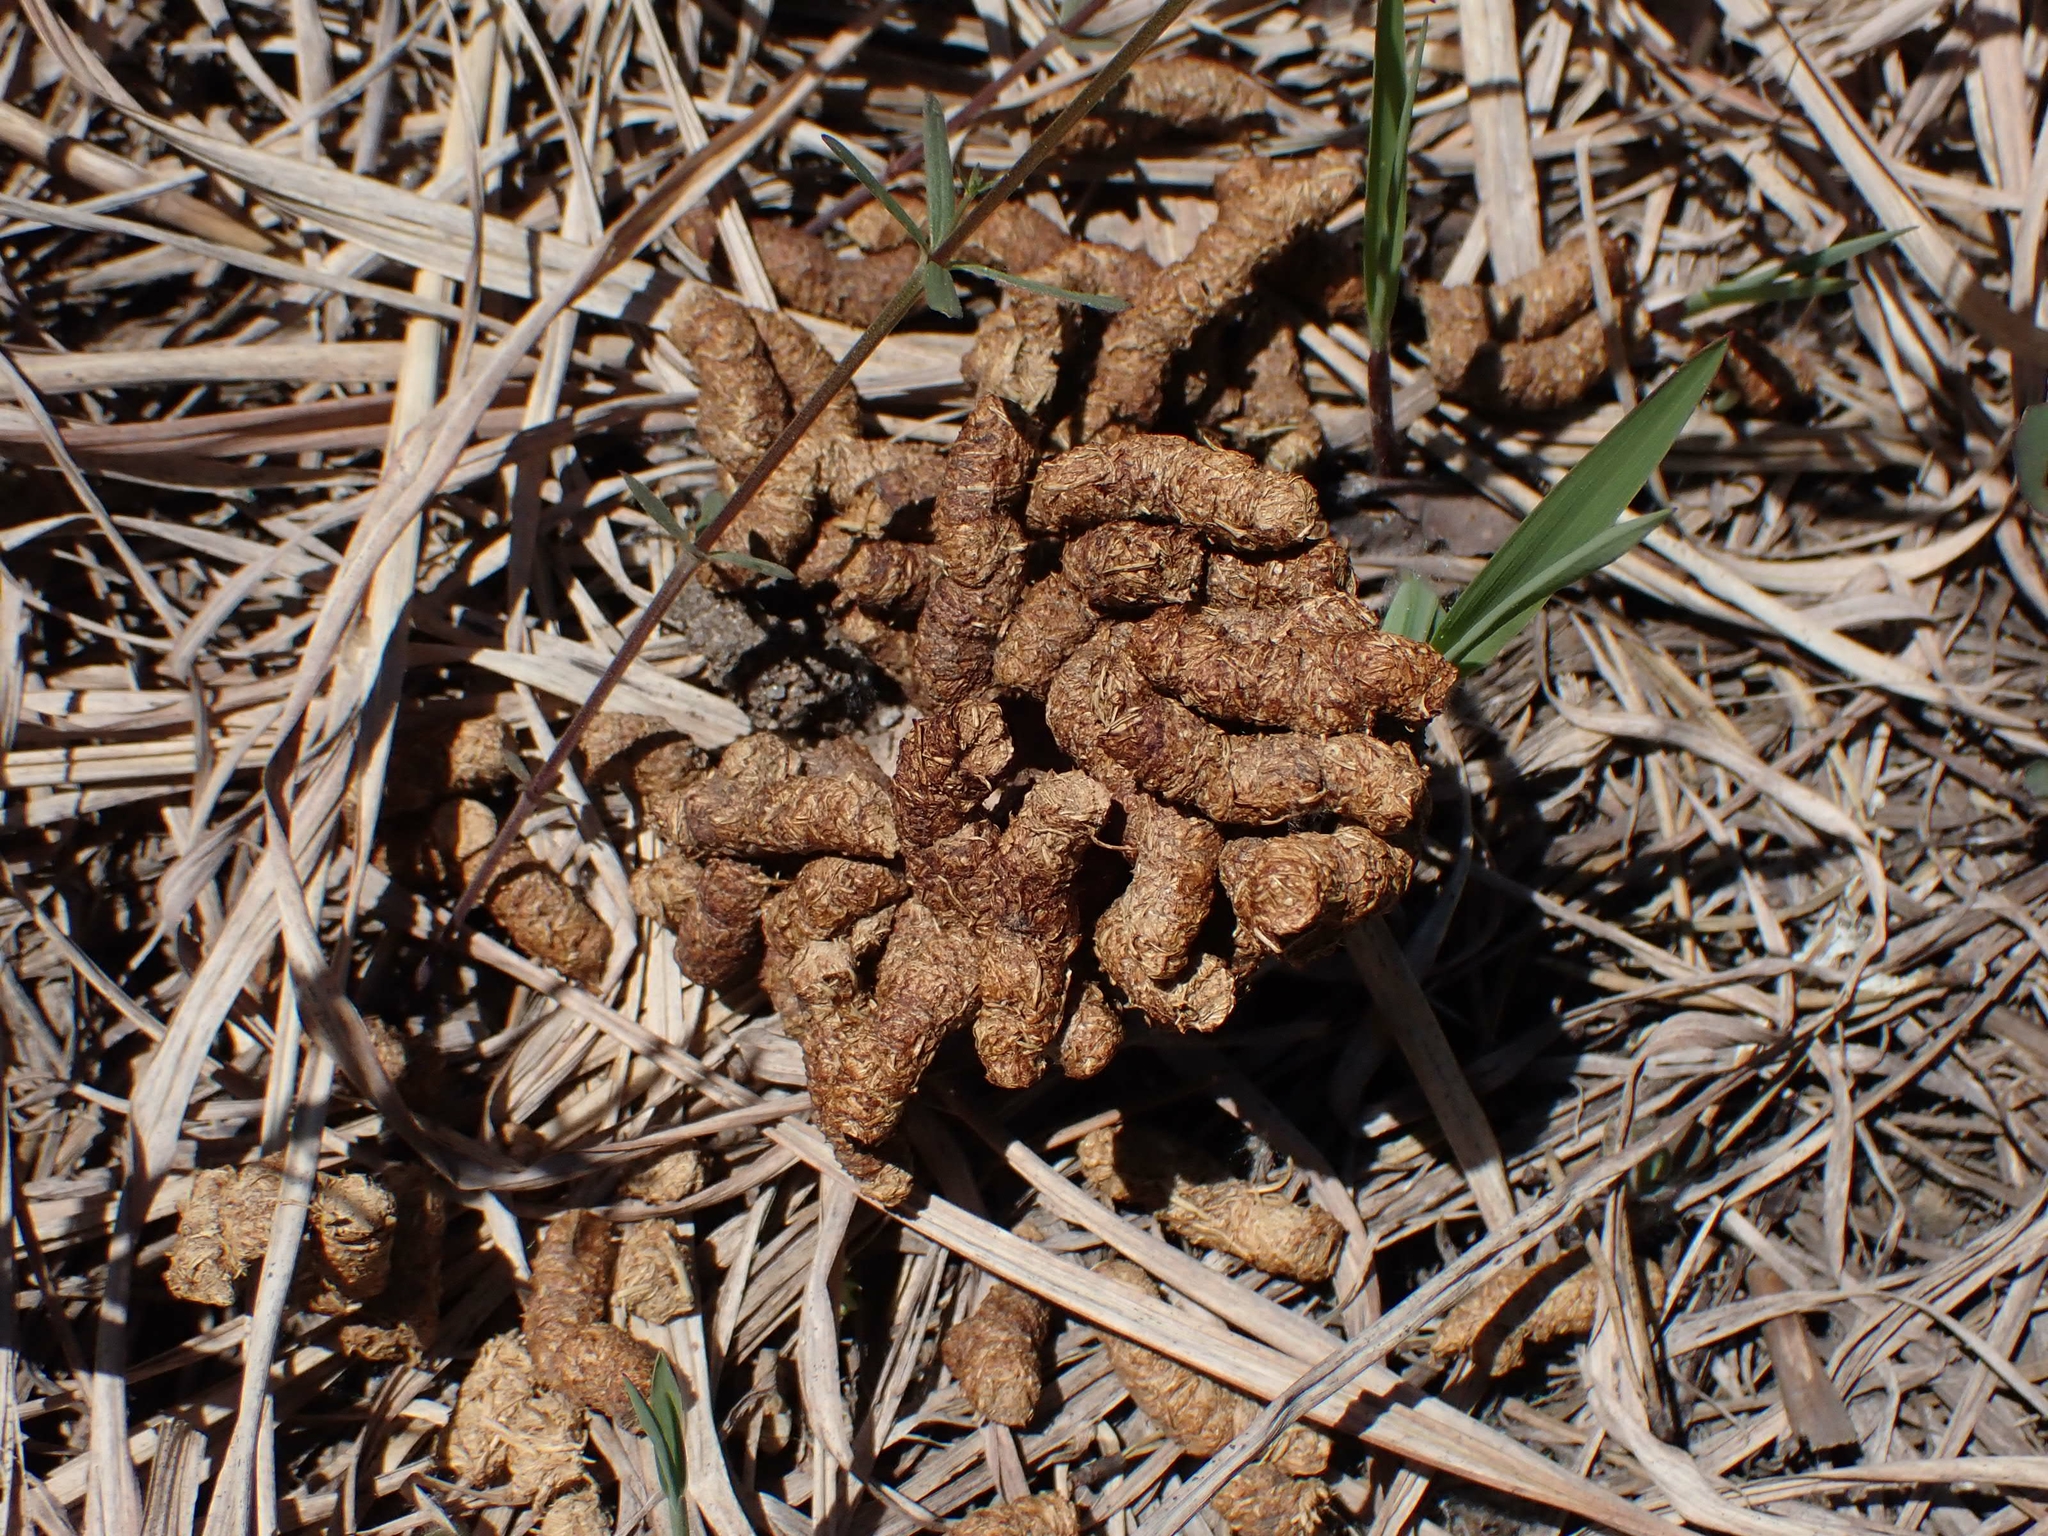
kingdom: Animalia
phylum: Chordata
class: Aves
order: Galliformes
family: Phasianidae
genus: Bonasa
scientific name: Bonasa umbellus
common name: Ruffed grouse
